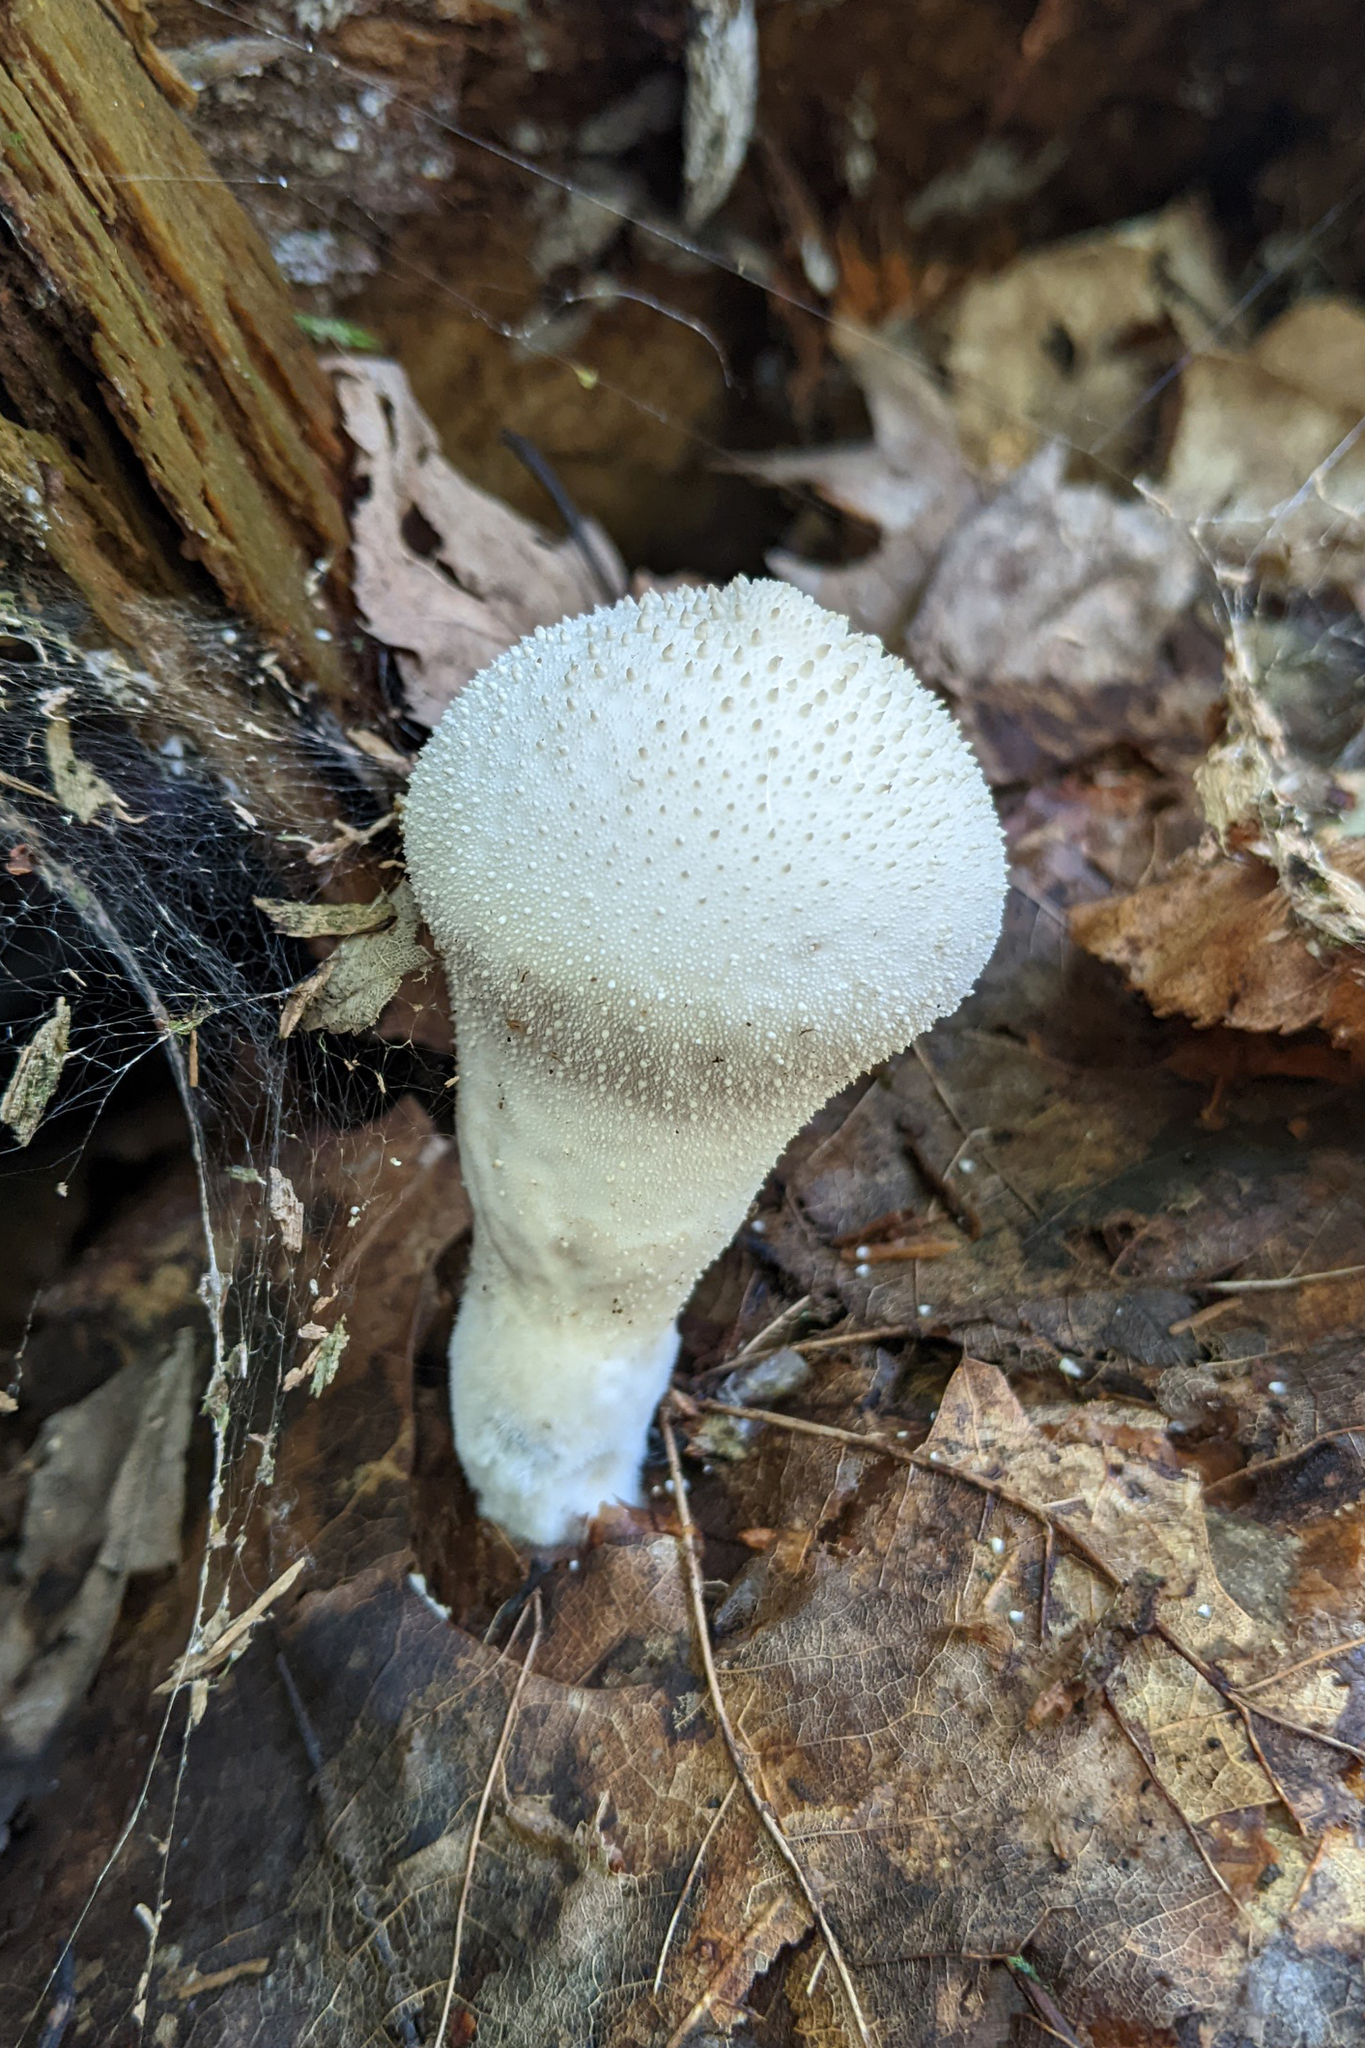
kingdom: Fungi
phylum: Basidiomycota
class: Agaricomycetes
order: Agaricales
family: Lycoperdaceae
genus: Lycoperdon
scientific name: Lycoperdon perlatum
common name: Common puffball
